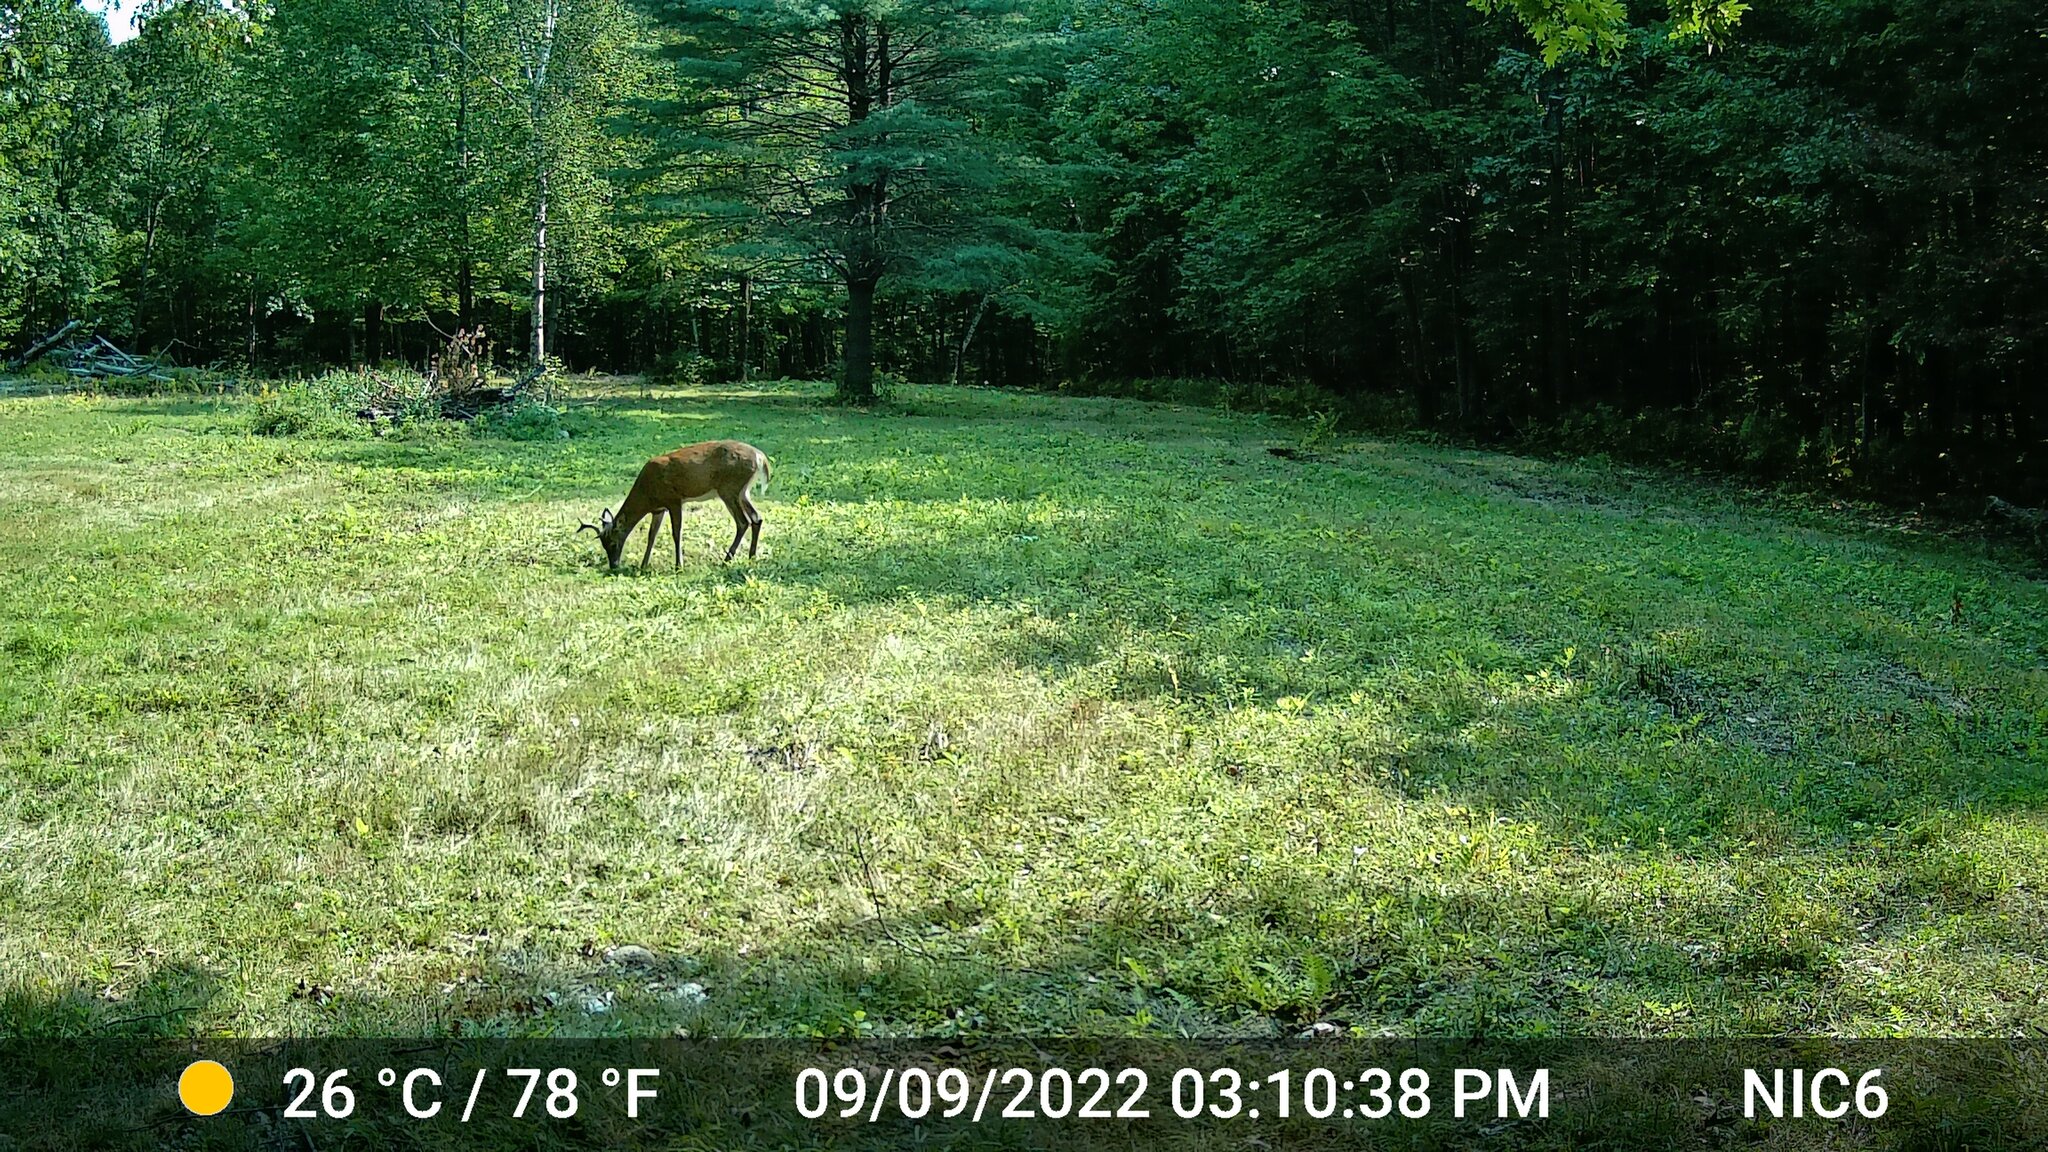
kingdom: Animalia
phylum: Chordata
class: Mammalia
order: Artiodactyla
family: Cervidae
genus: Odocoileus
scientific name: Odocoileus virginianus
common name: White-tailed deer
